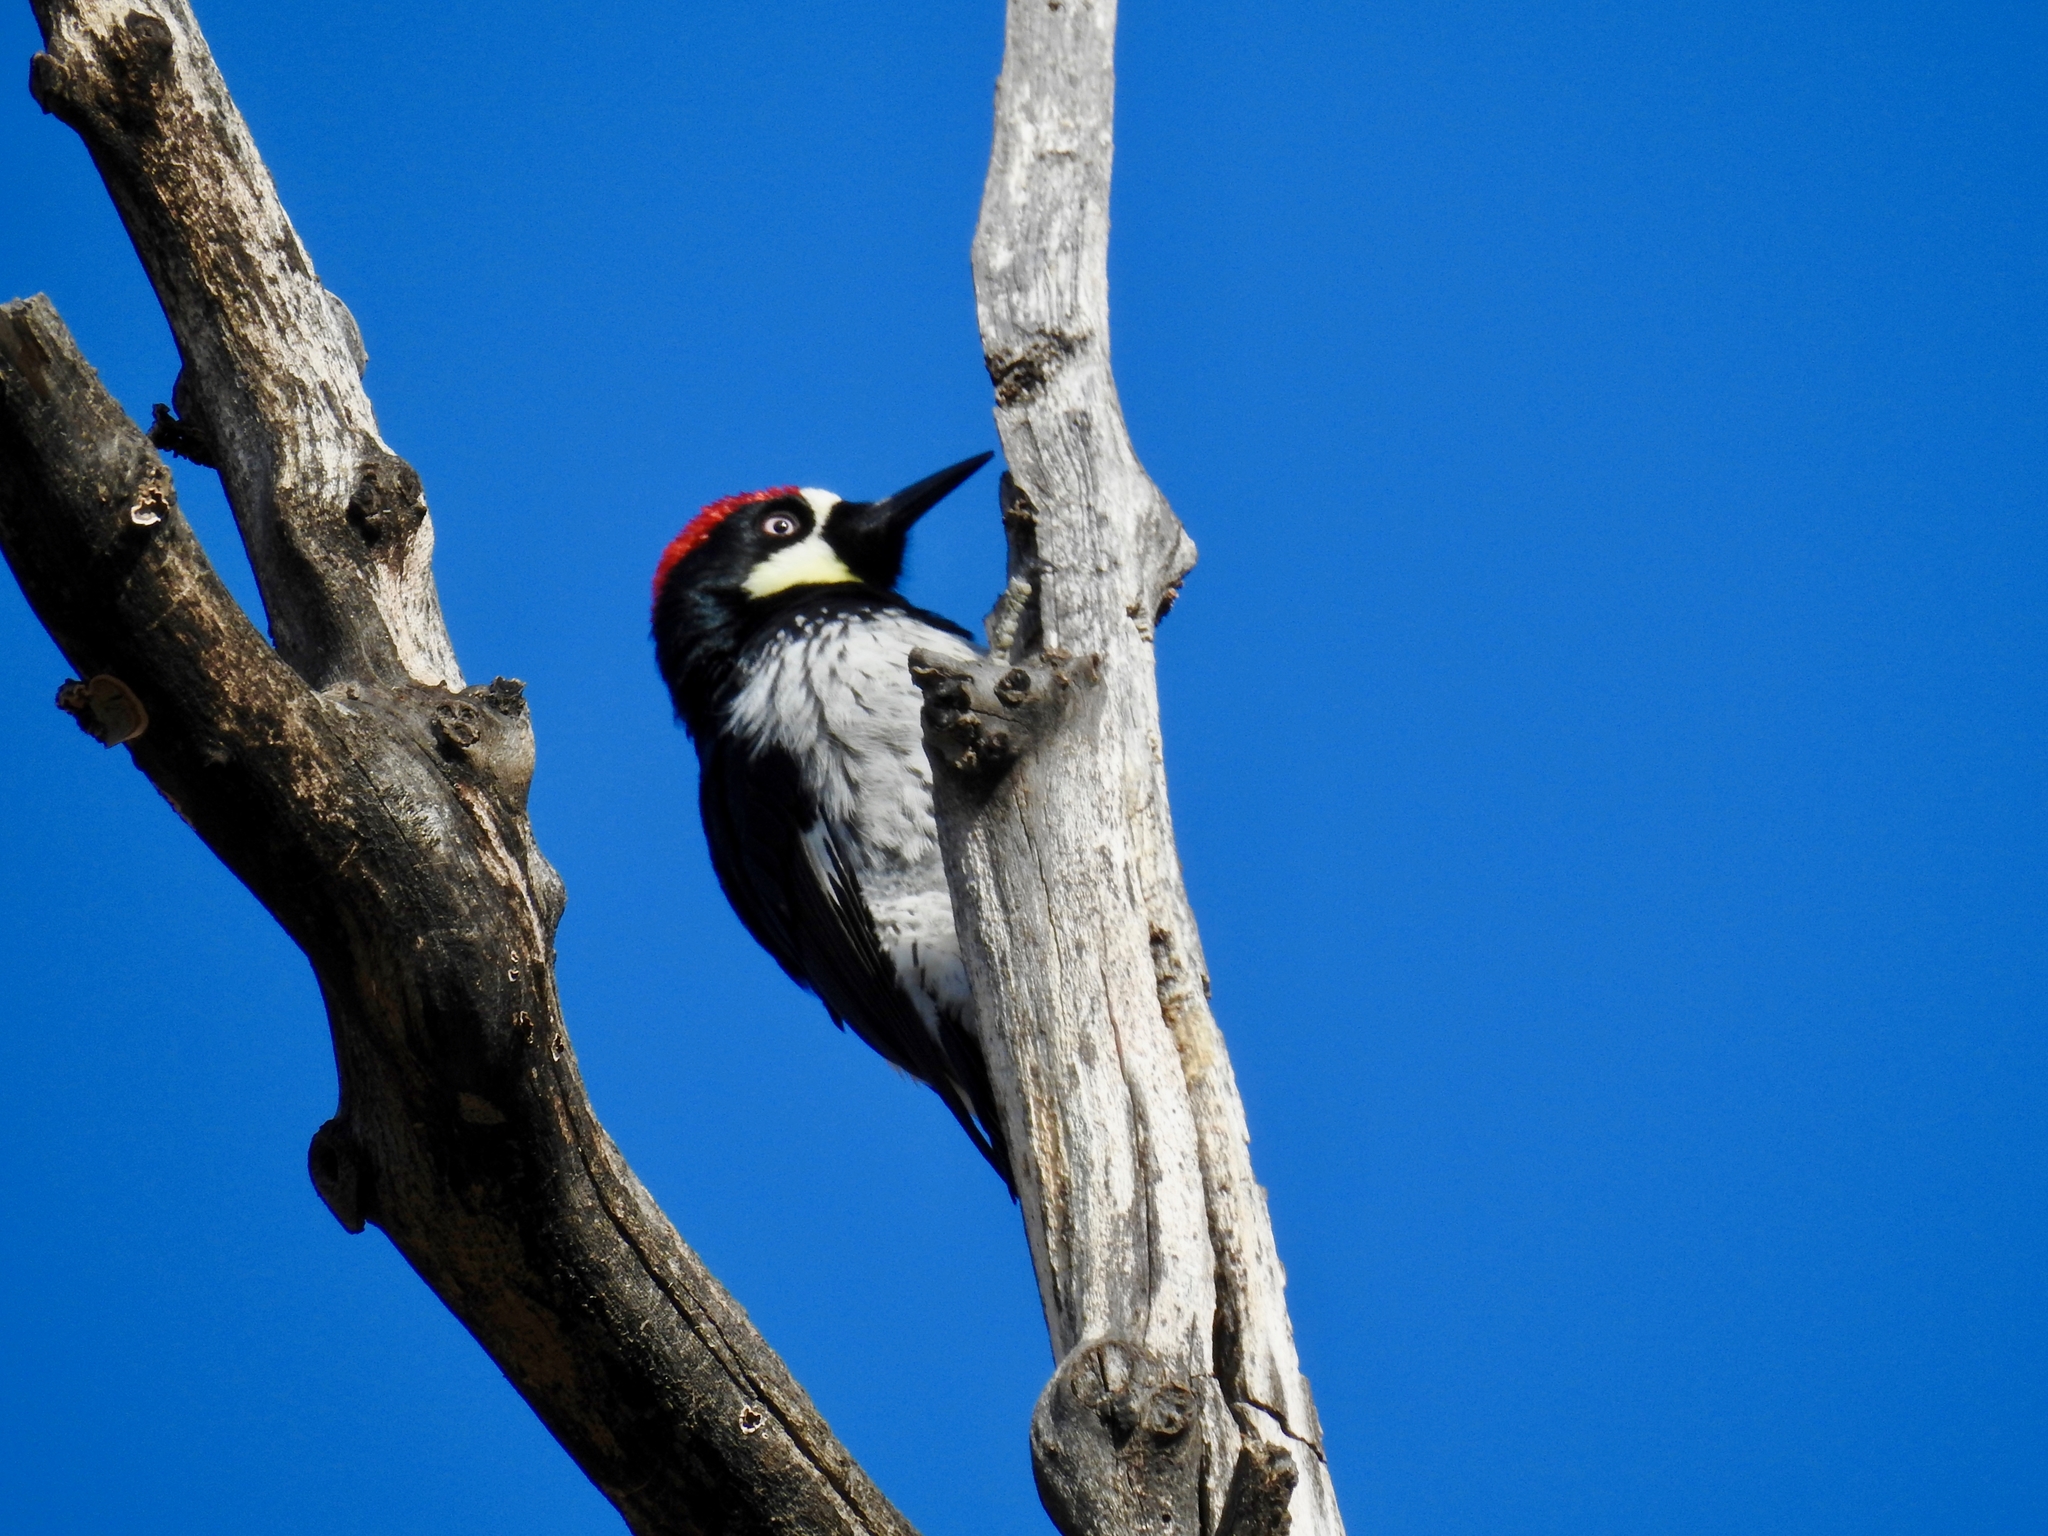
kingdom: Animalia
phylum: Chordata
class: Aves
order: Piciformes
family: Picidae
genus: Melanerpes
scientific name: Melanerpes formicivorus
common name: Acorn woodpecker
